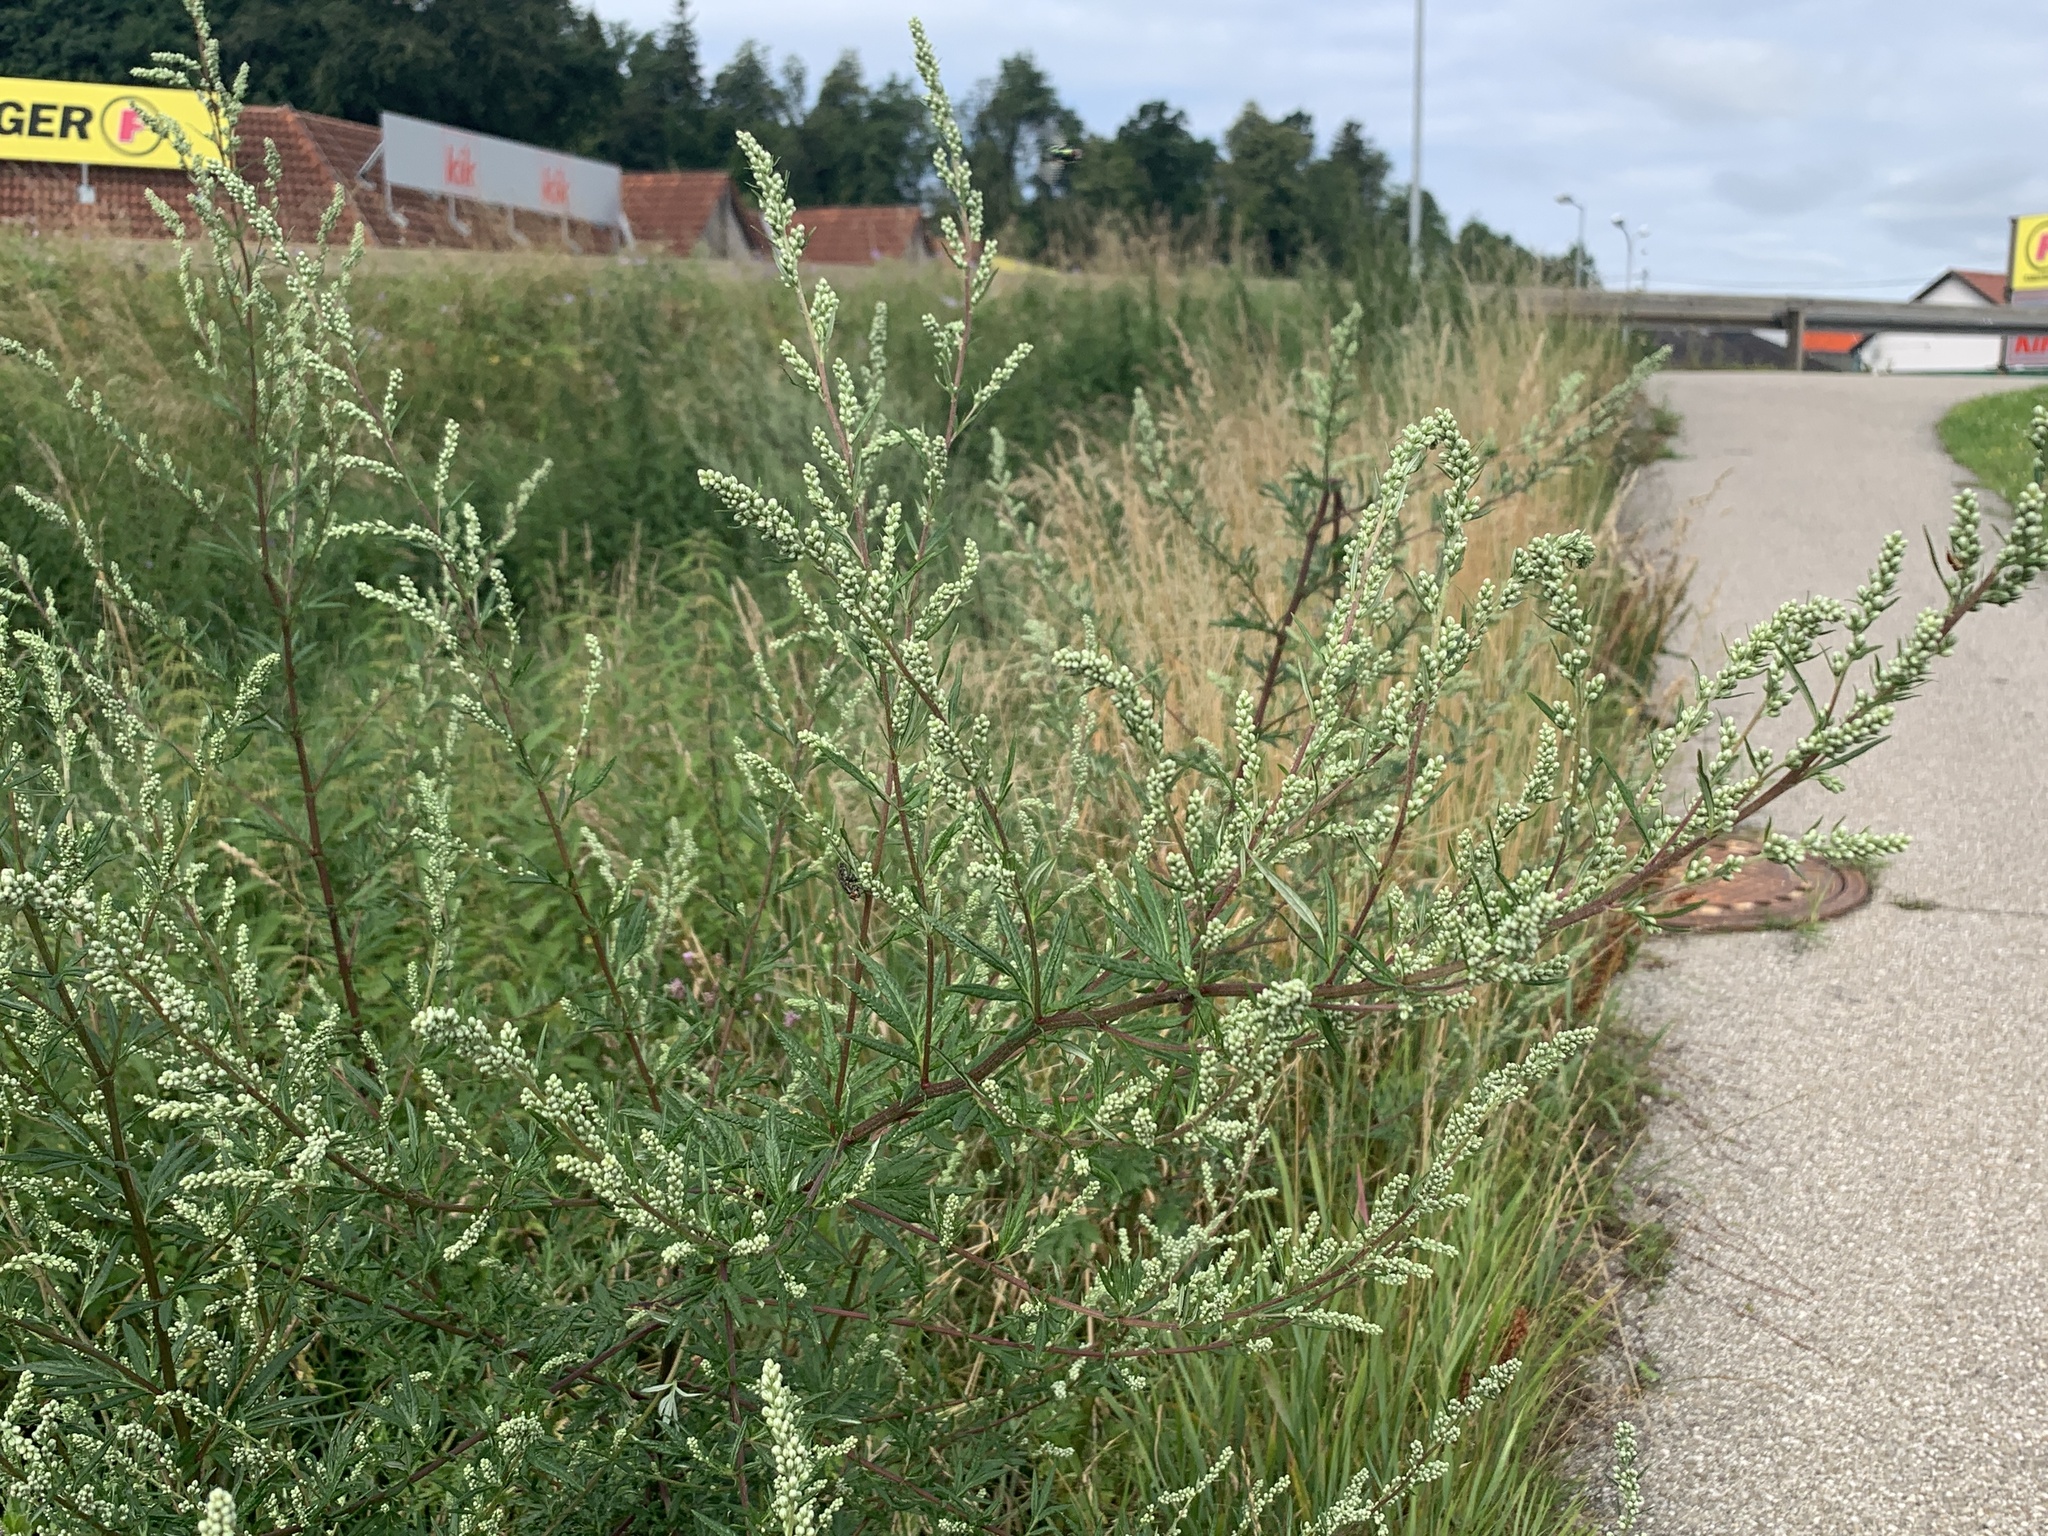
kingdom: Plantae
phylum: Tracheophyta
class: Magnoliopsida
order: Asterales
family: Asteraceae
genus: Artemisia
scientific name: Artemisia vulgaris
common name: Mugwort
